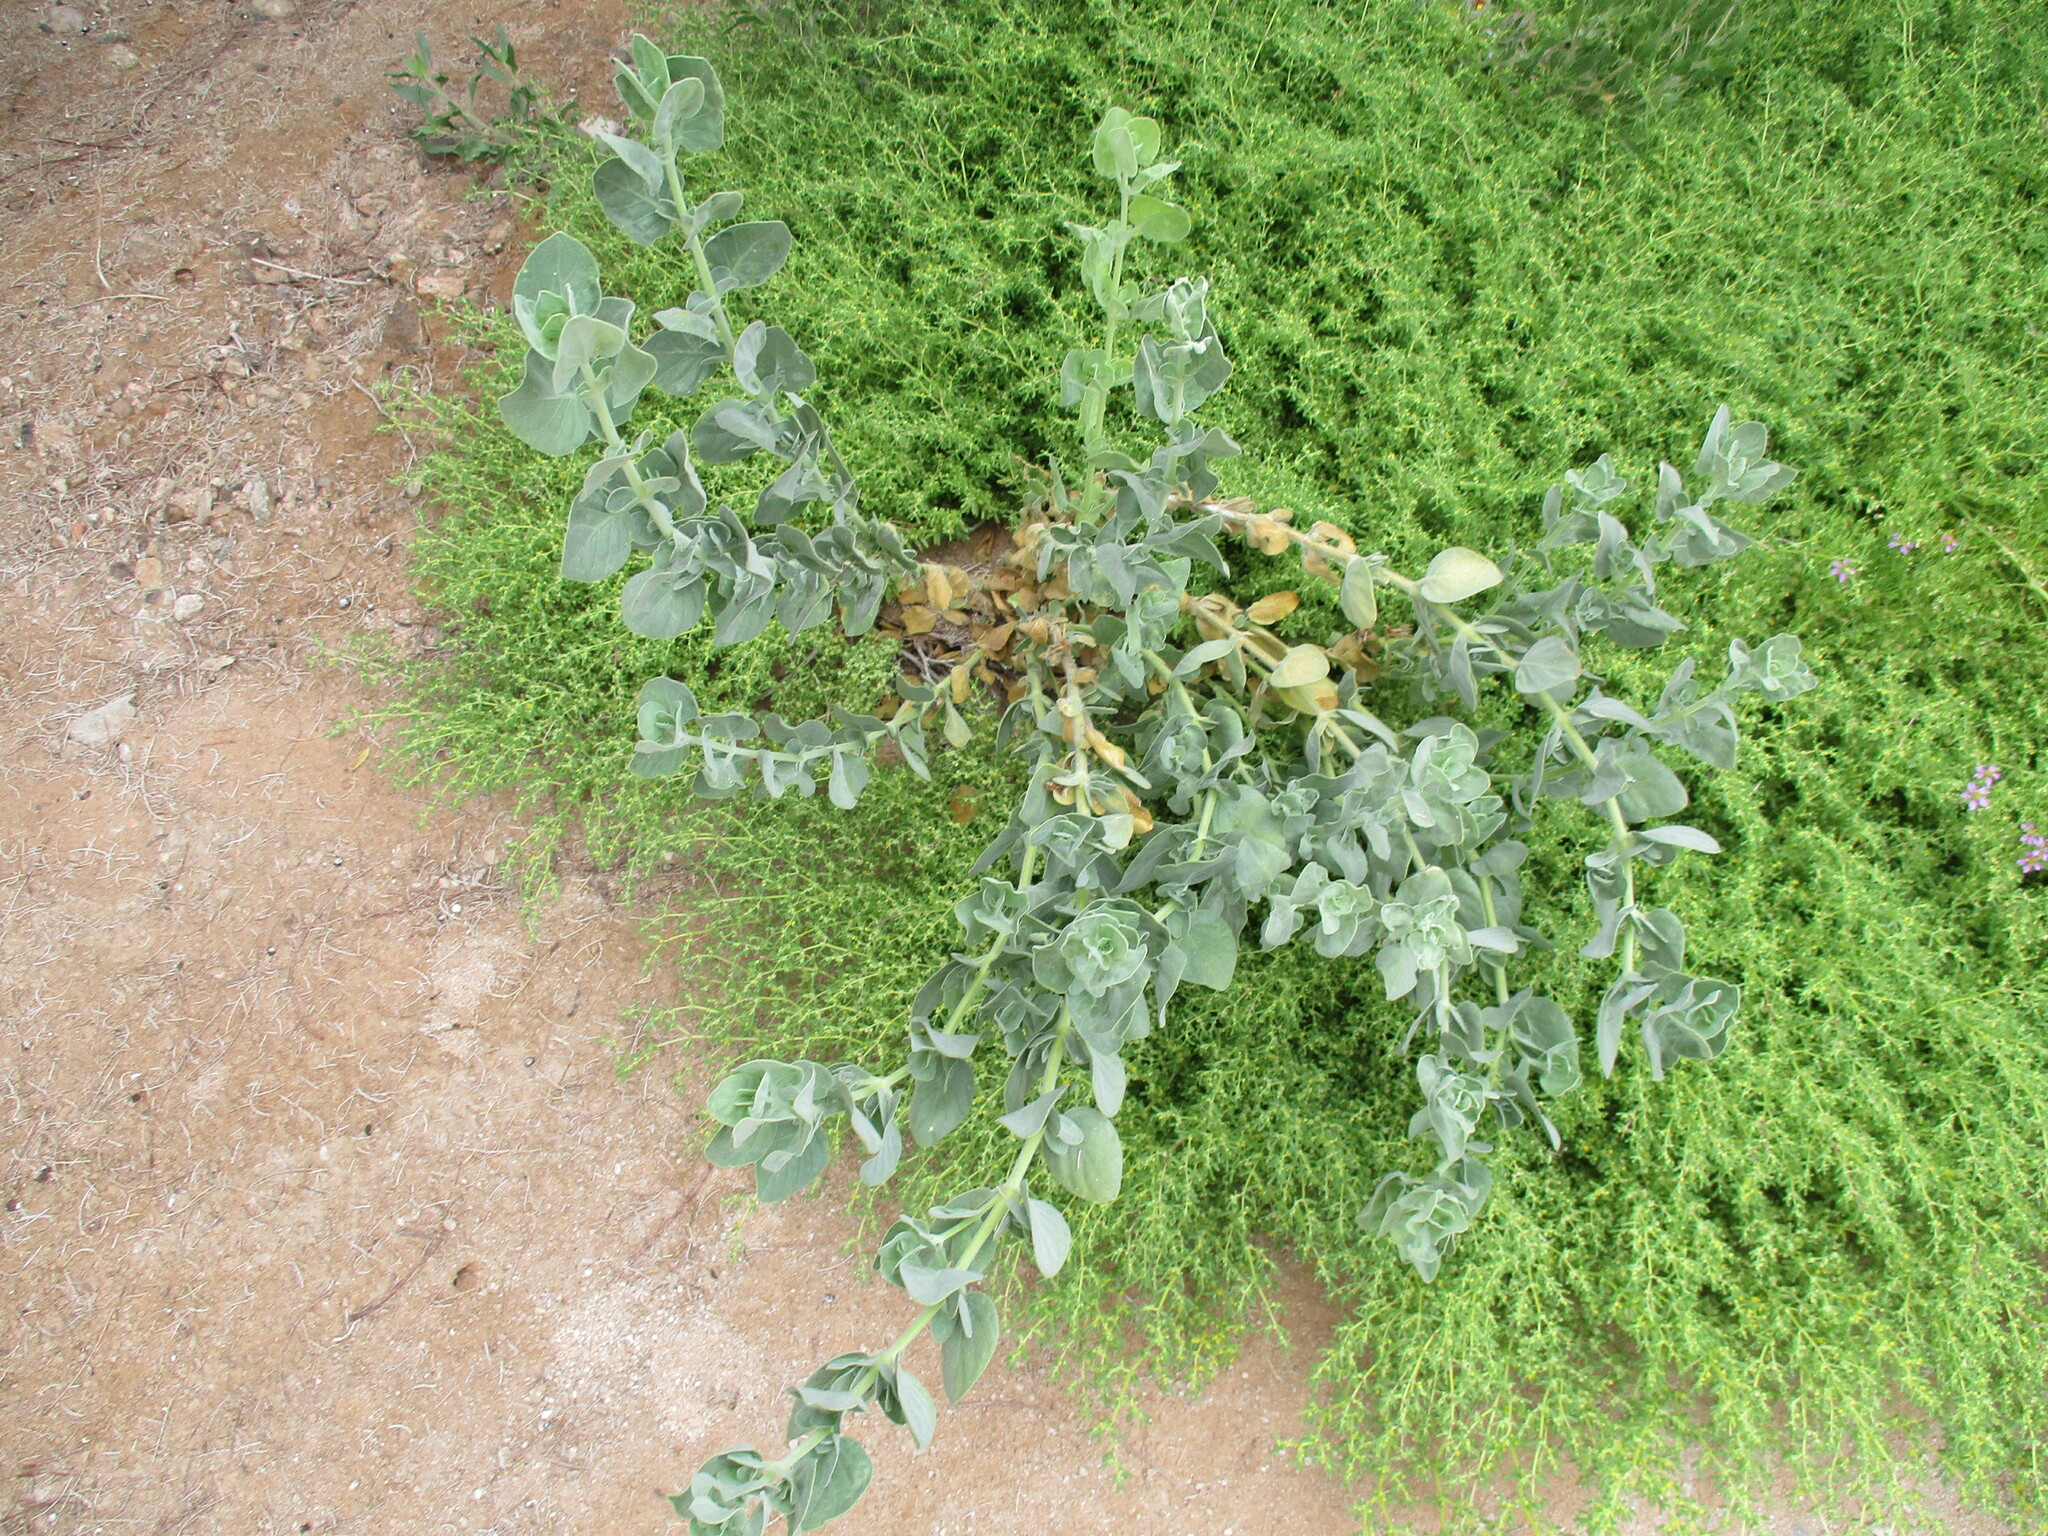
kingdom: Plantae
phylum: Tracheophyta
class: Magnoliopsida
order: Lamiales
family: Acanthaceae
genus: Dinteracanthus
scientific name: Dinteracanthus diversifolius
